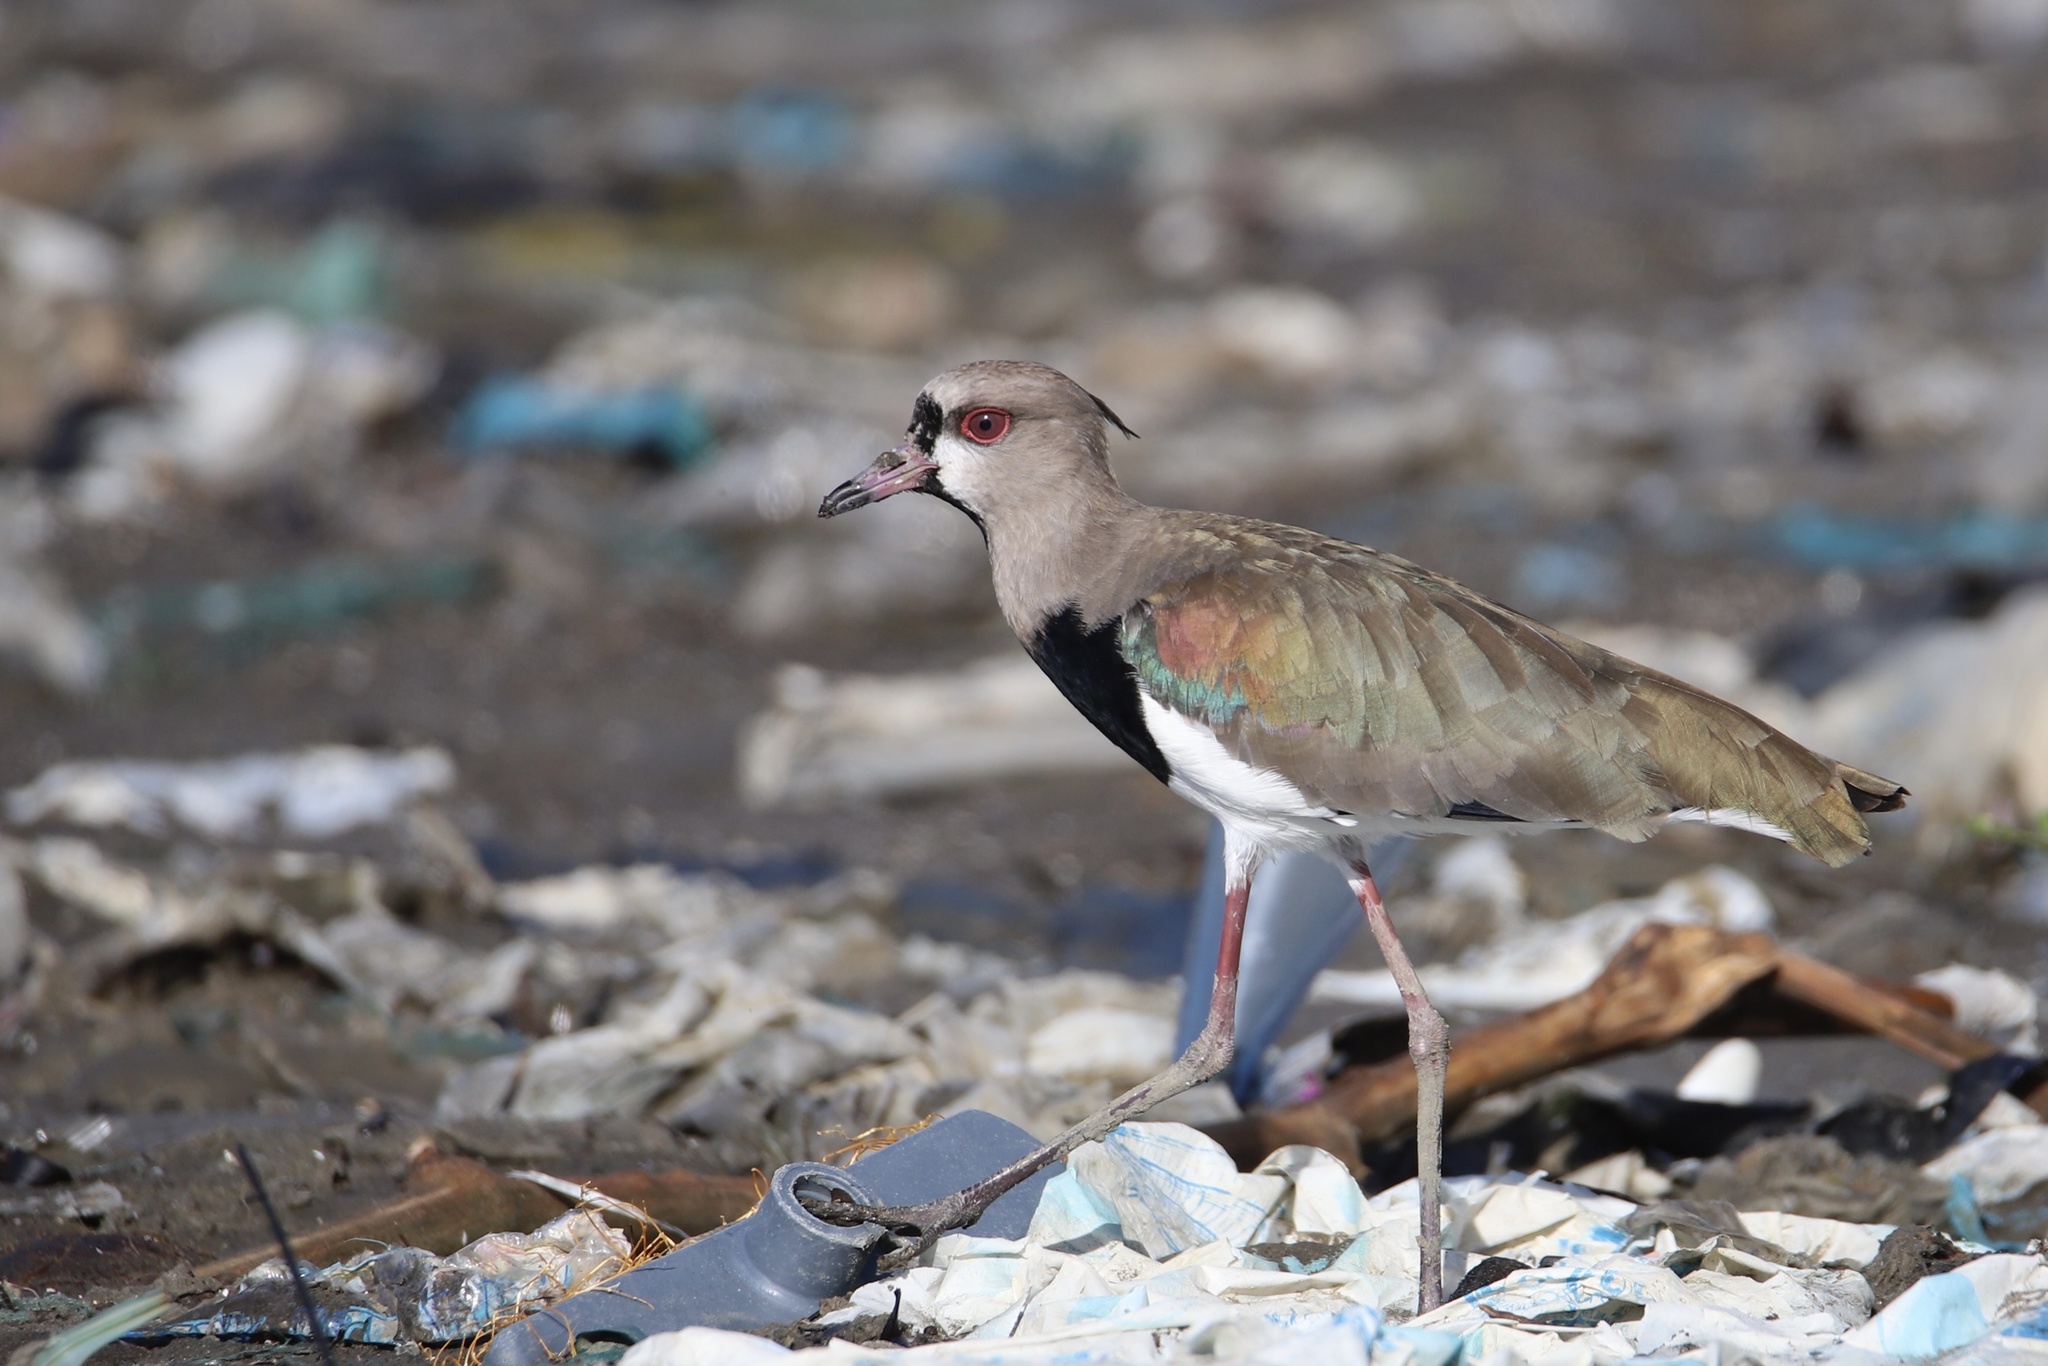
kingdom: Animalia
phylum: Chordata
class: Aves
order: Charadriiformes
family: Charadriidae
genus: Vanellus
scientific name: Vanellus chilensis
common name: Southern lapwing
